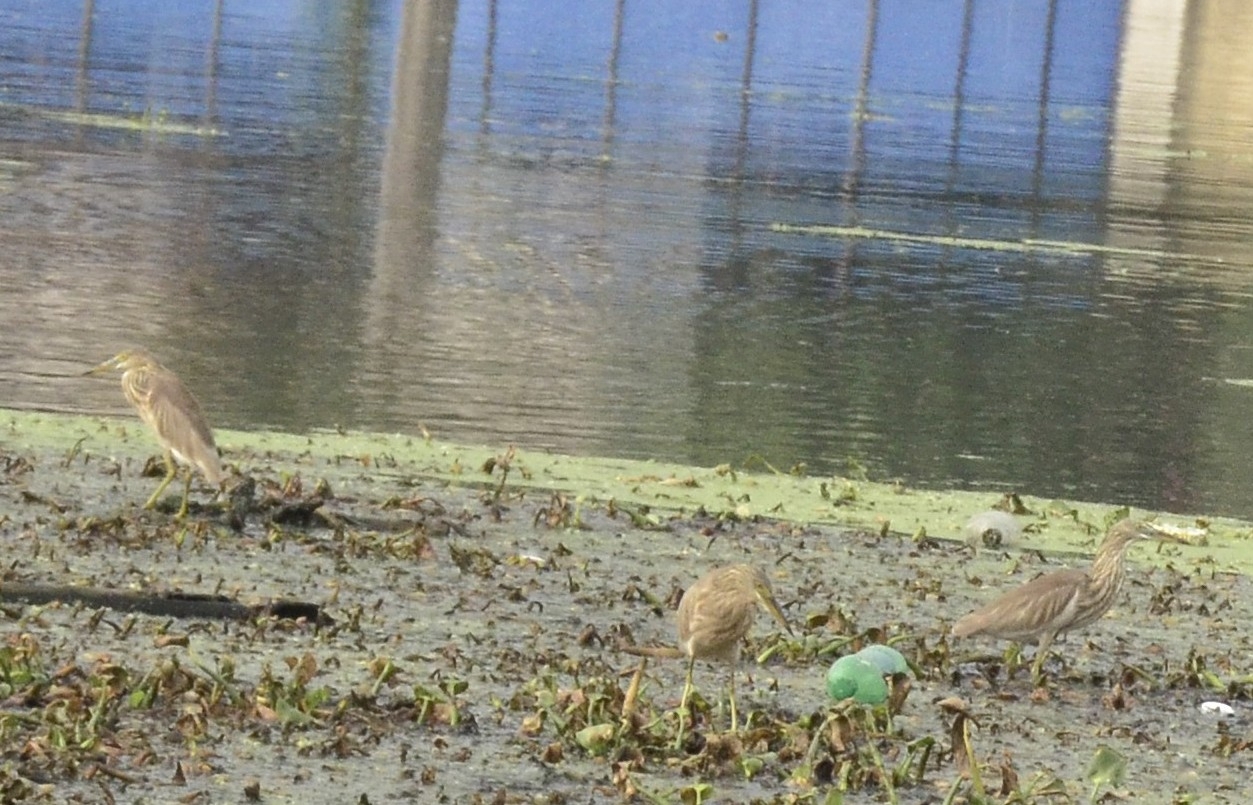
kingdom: Animalia
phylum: Chordata
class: Aves
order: Pelecaniformes
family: Ardeidae
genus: Ardeola
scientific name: Ardeola grayii
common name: Indian pond heron
